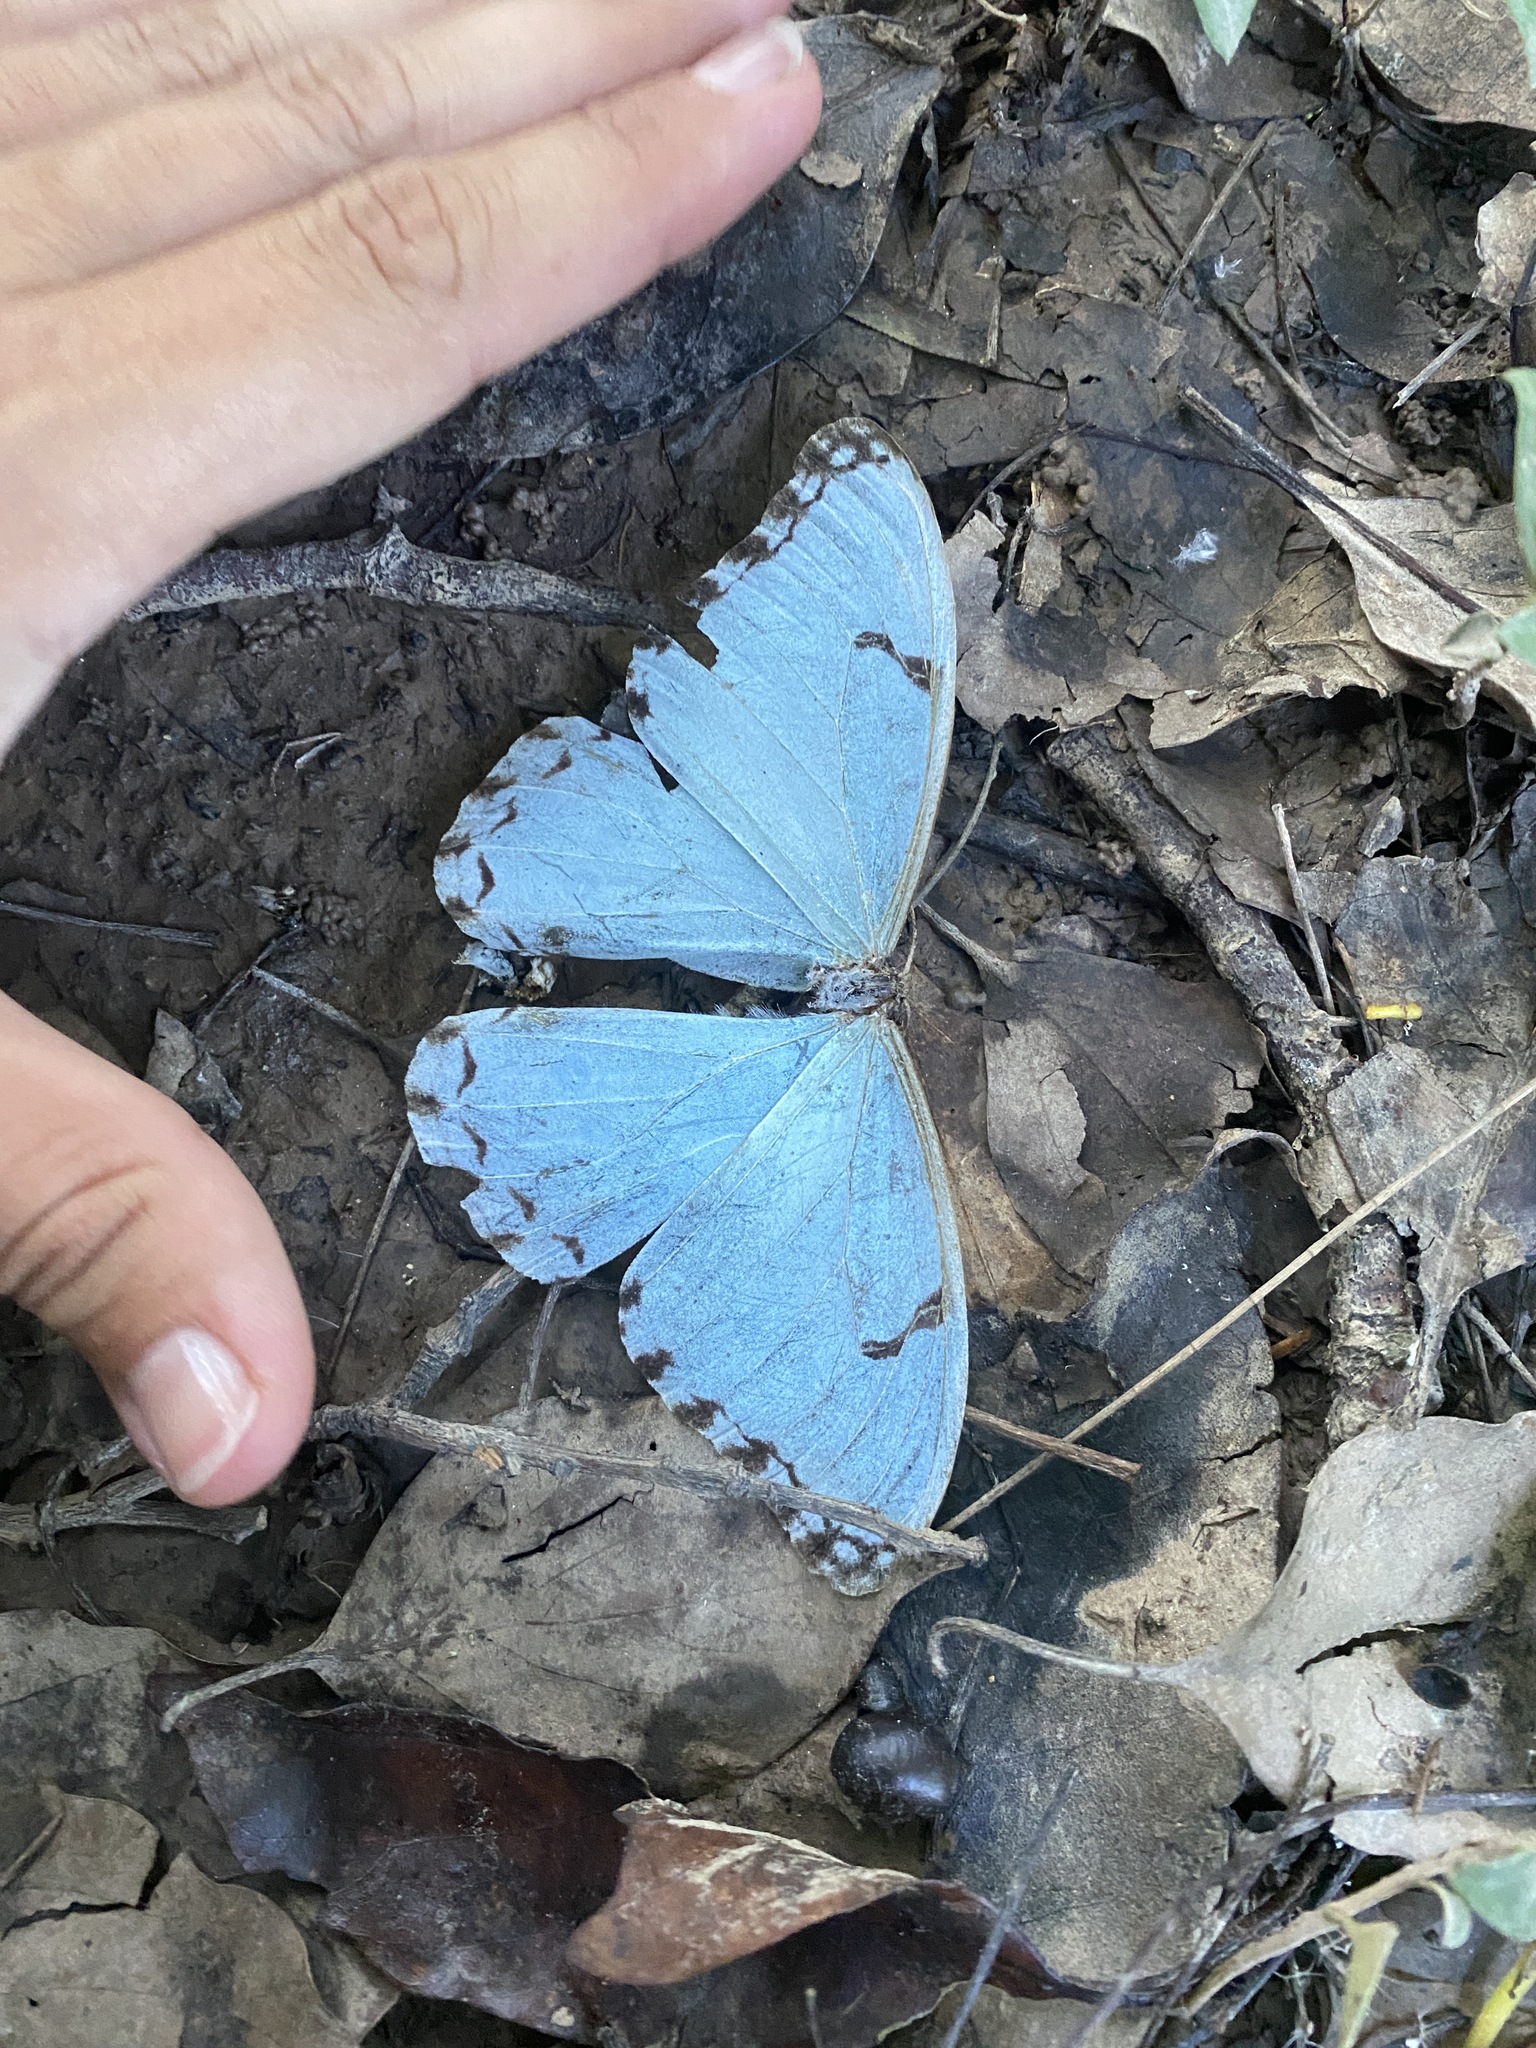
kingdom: Animalia
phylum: Arthropoda
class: Insecta
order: Lepidoptera
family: Nymphalidae
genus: Morpho
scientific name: Morpho epistrophus
